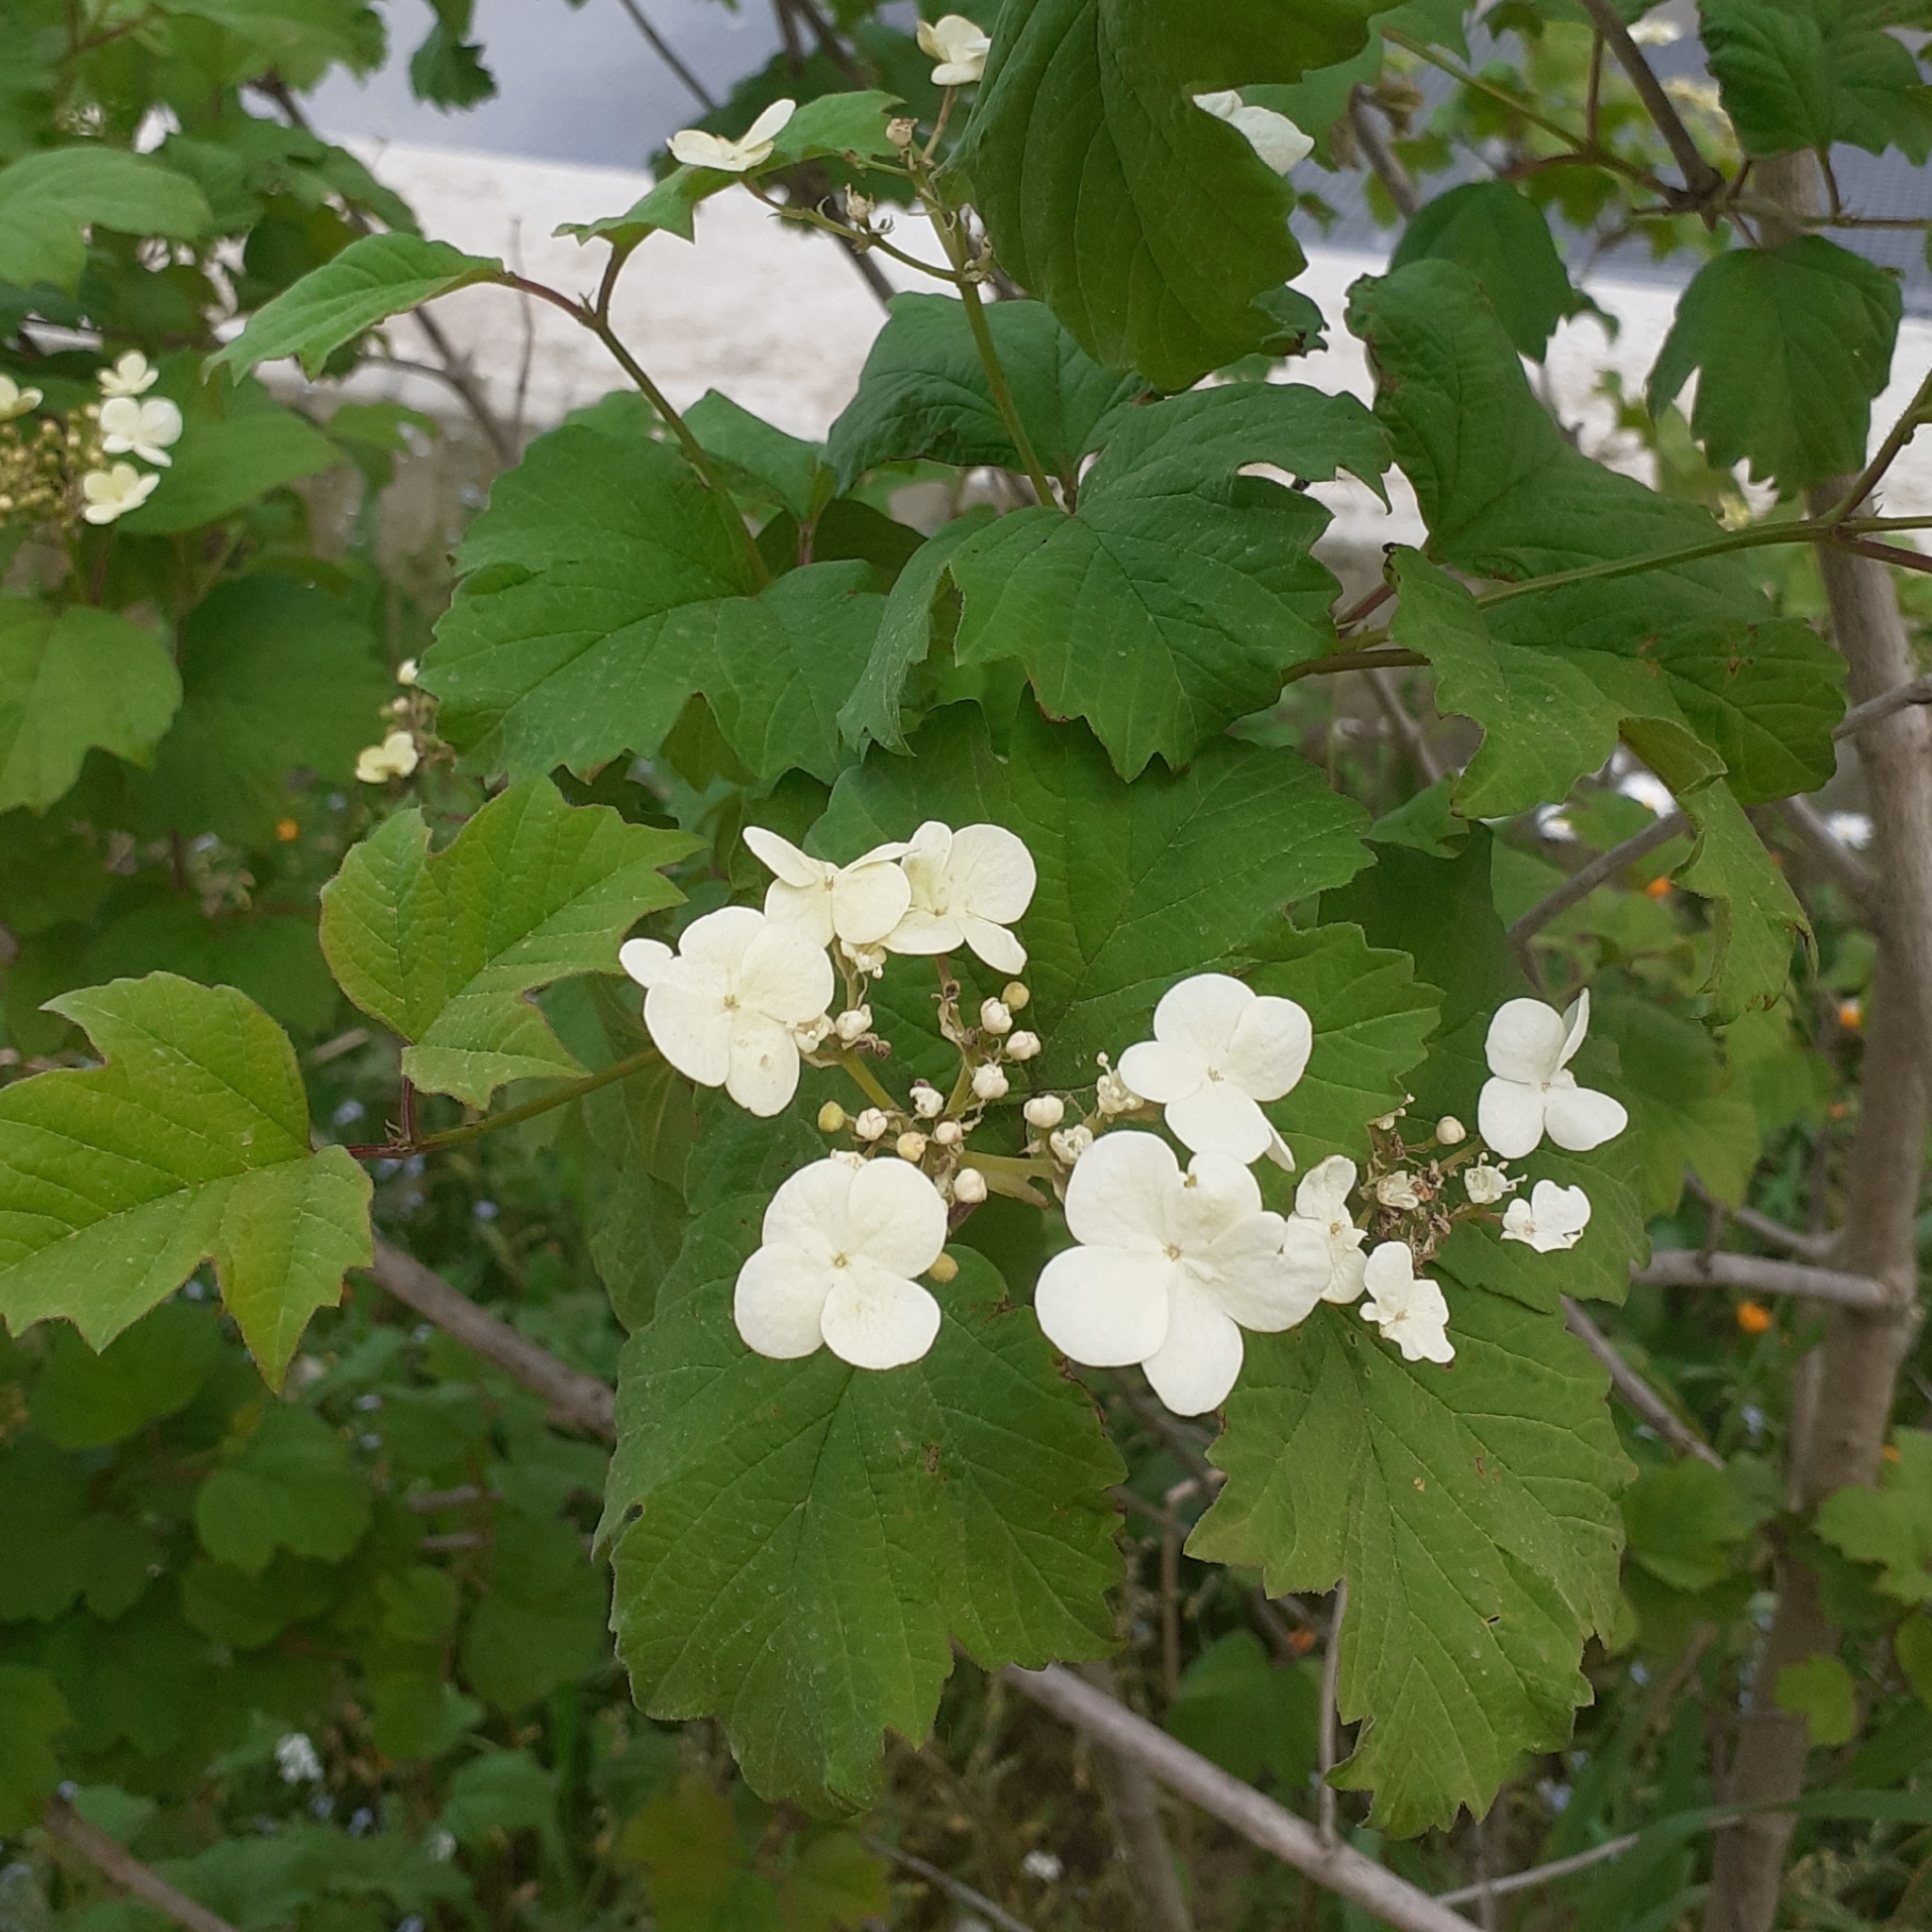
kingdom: Plantae
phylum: Tracheophyta
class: Magnoliopsida
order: Dipsacales
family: Viburnaceae
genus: Viburnum
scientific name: Viburnum opulus
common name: Guelder-rose
